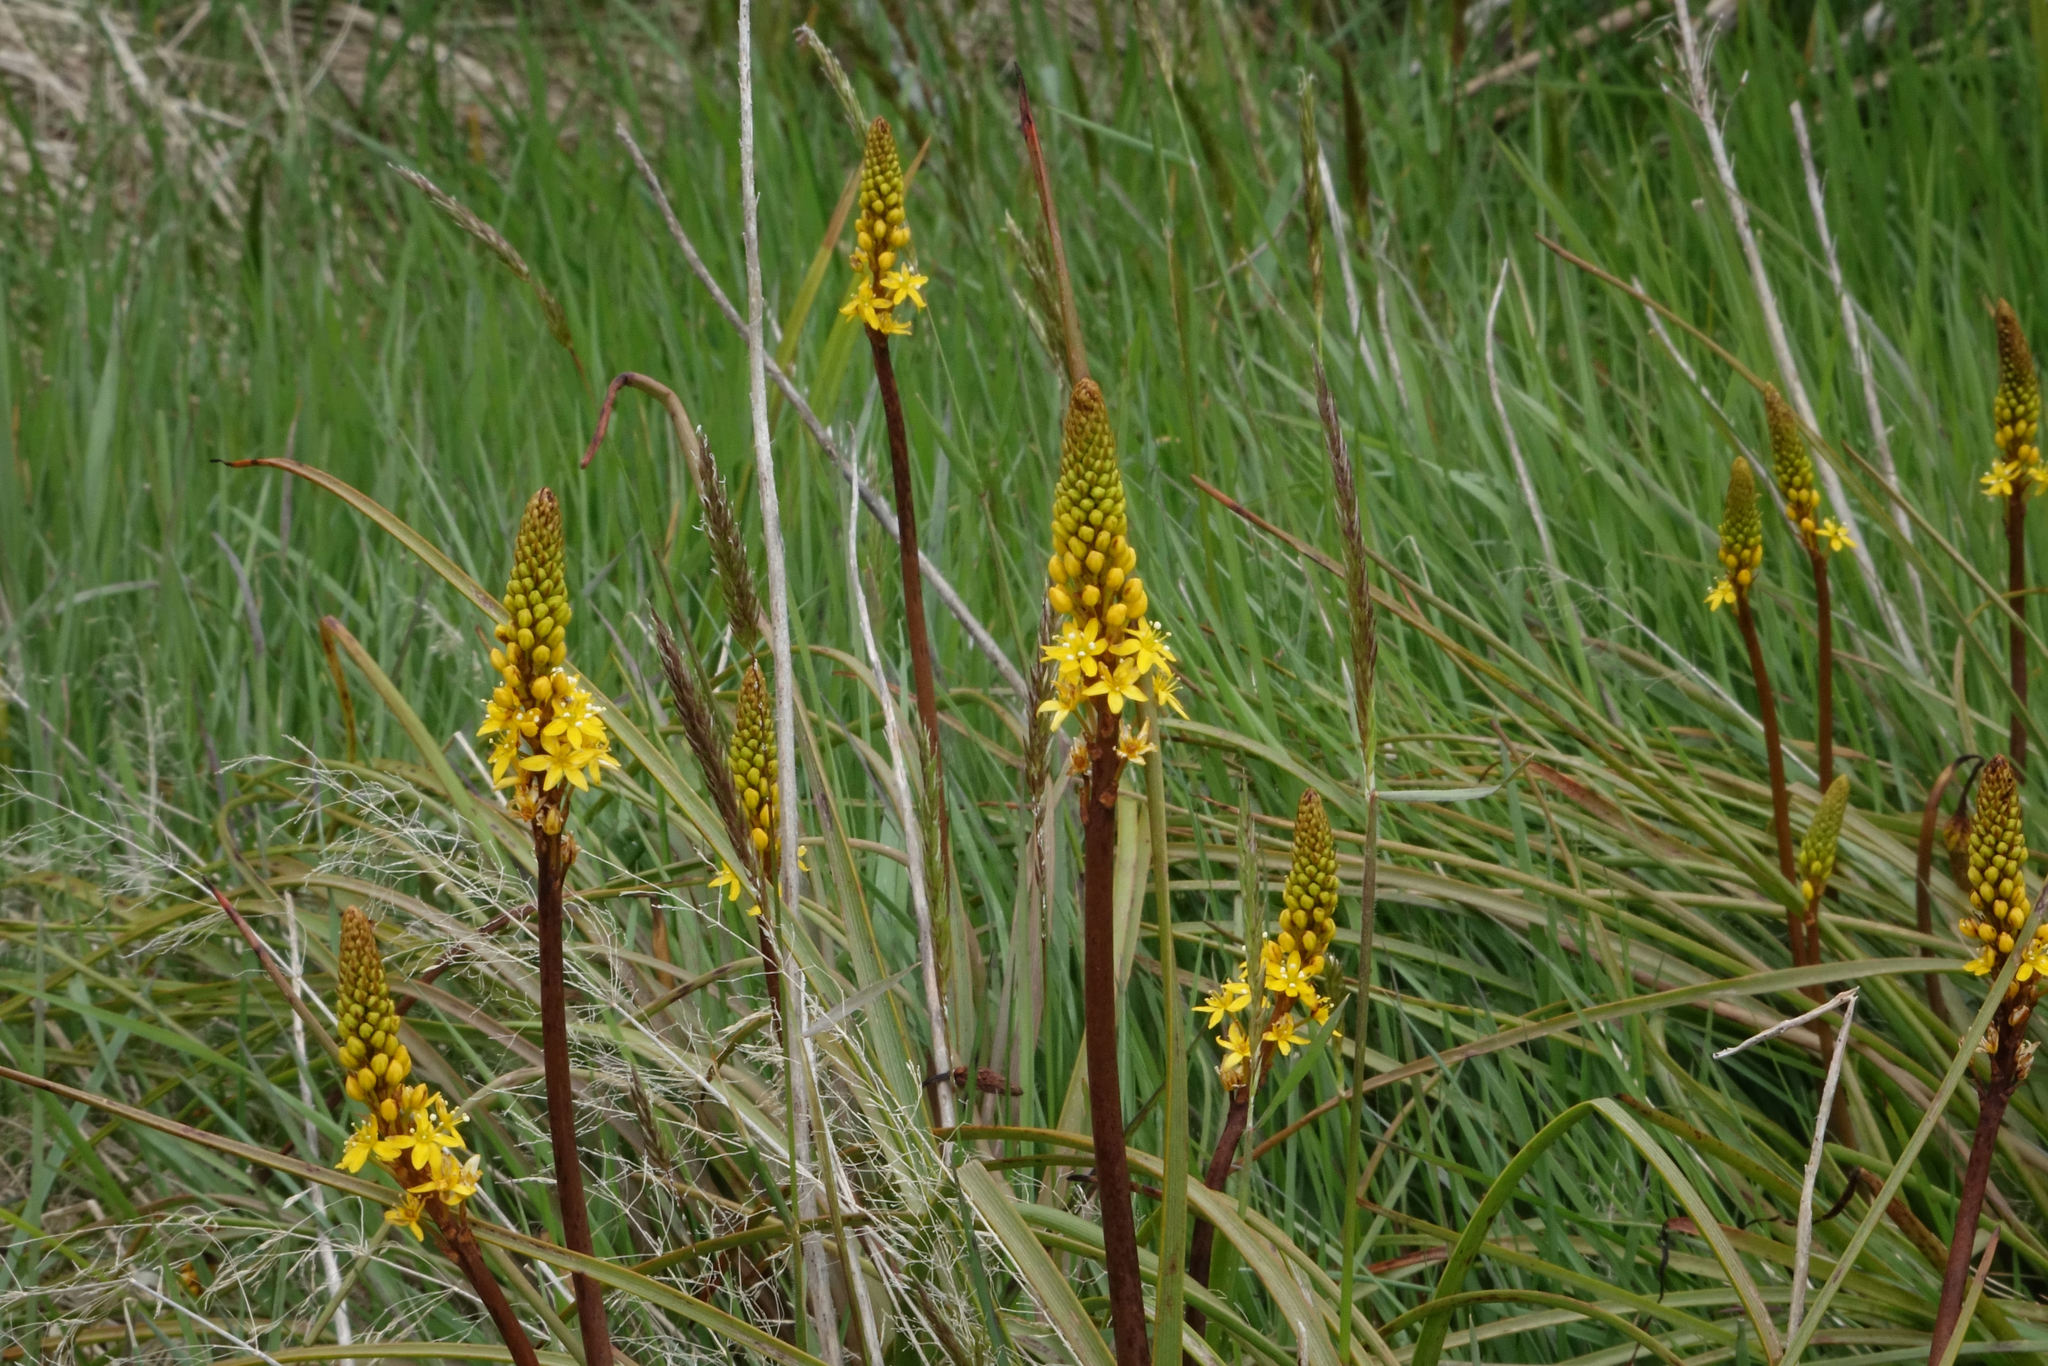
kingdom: Plantae
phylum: Tracheophyta
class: Liliopsida
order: Asparagales
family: Asphodelaceae
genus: Bulbinella
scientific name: Bulbinella angustifolia
